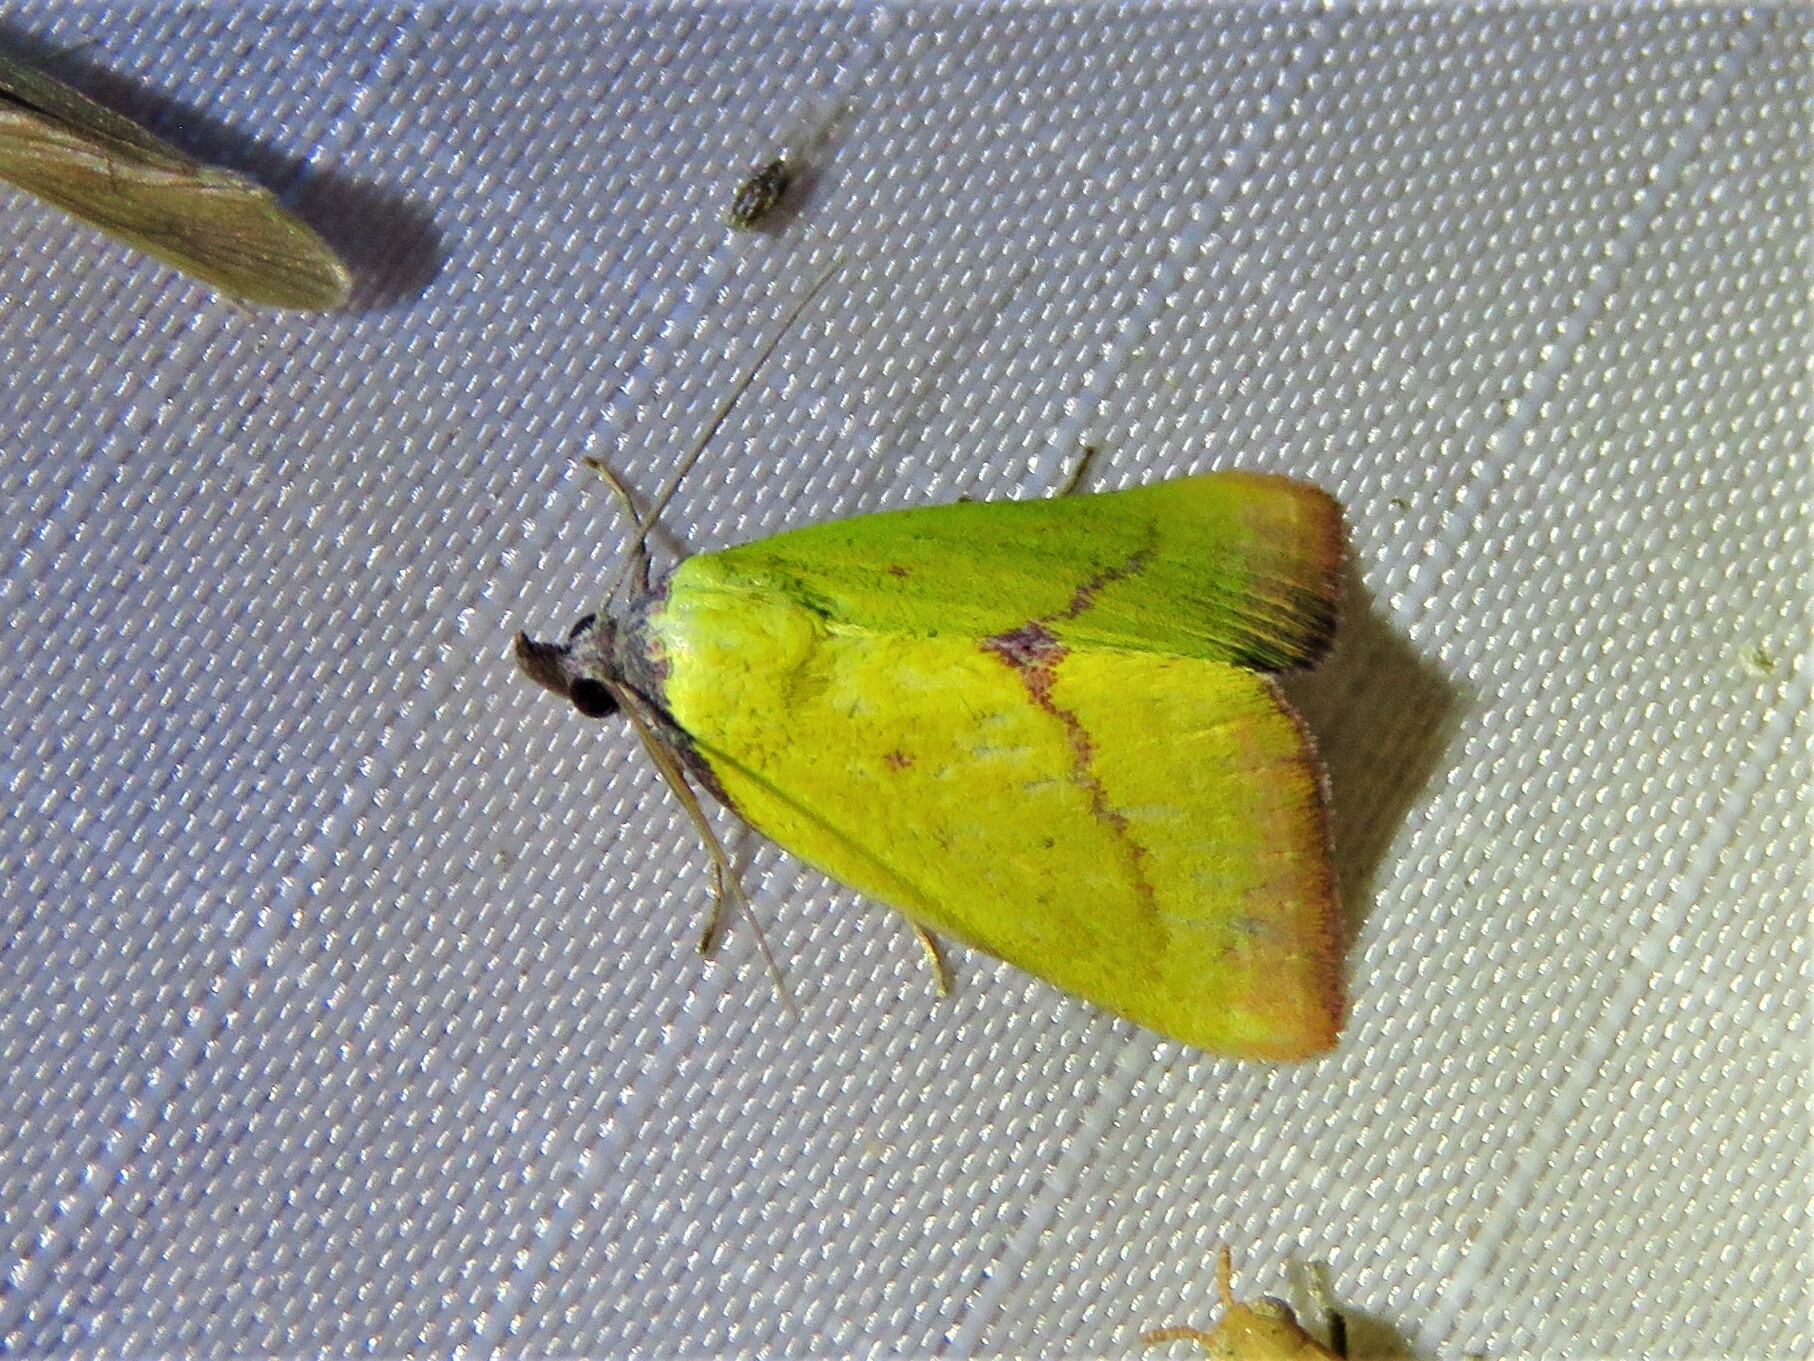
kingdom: Animalia
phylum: Arthropoda
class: Insecta
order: Lepidoptera
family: Erebidae
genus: Phytometra
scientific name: Phytometra orgiae
